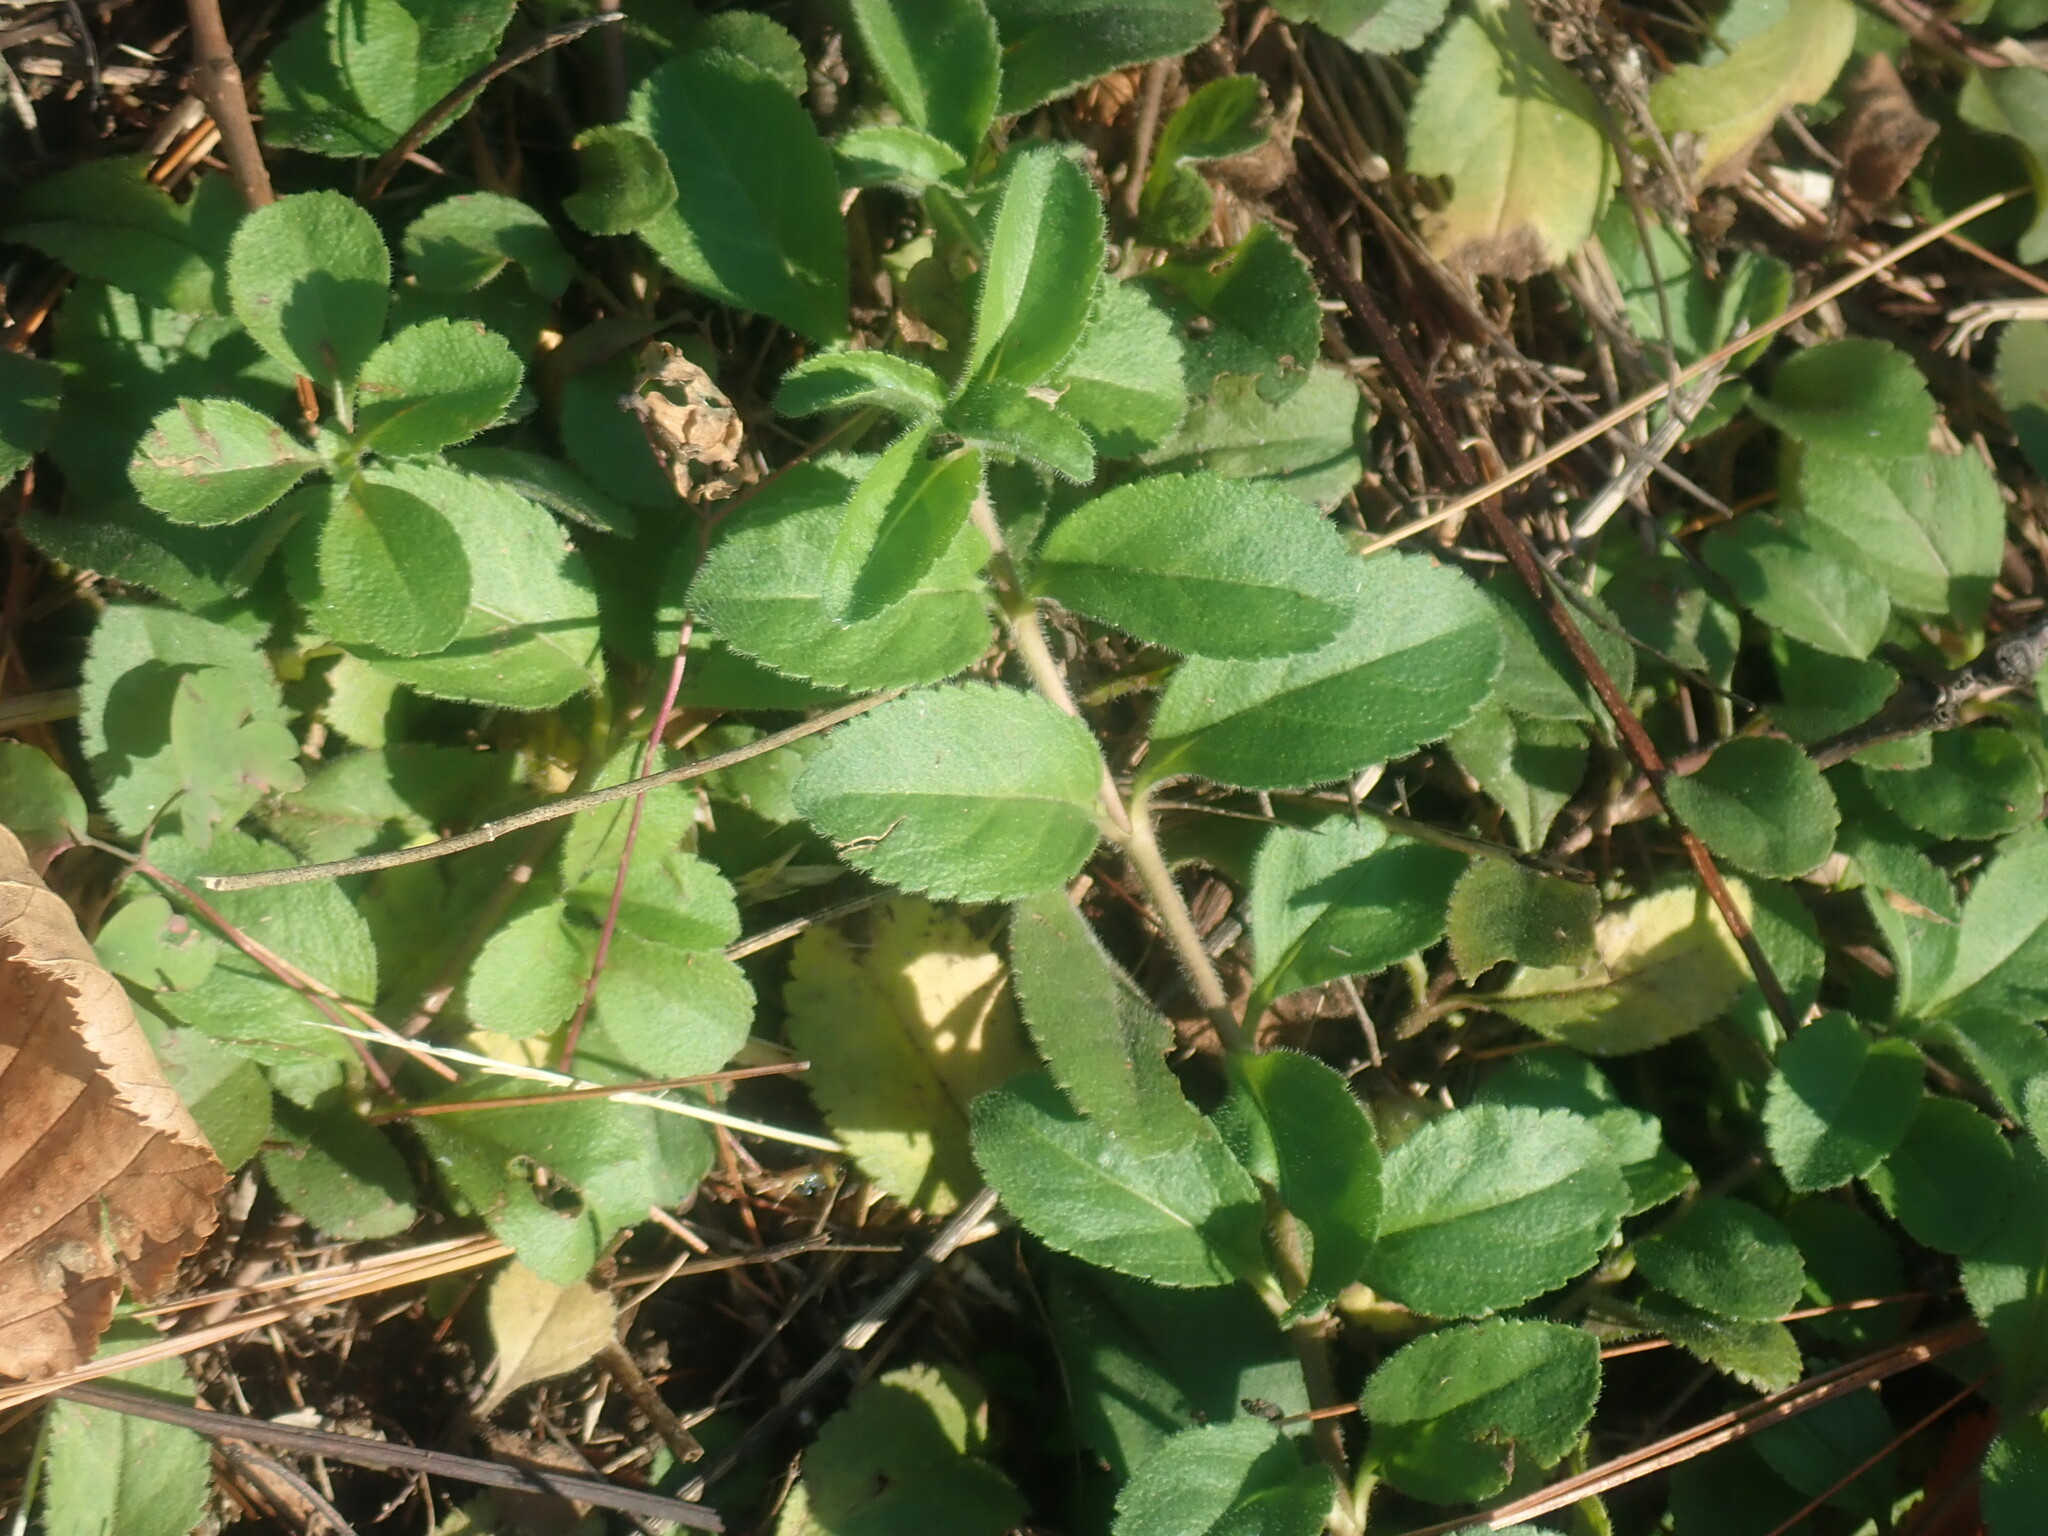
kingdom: Plantae
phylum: Tracheophyta
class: Magnoliopsida
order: Lamiales
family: Plantaginaceae
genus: Veronica
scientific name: Veronica officinalis
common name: Common speedwell
